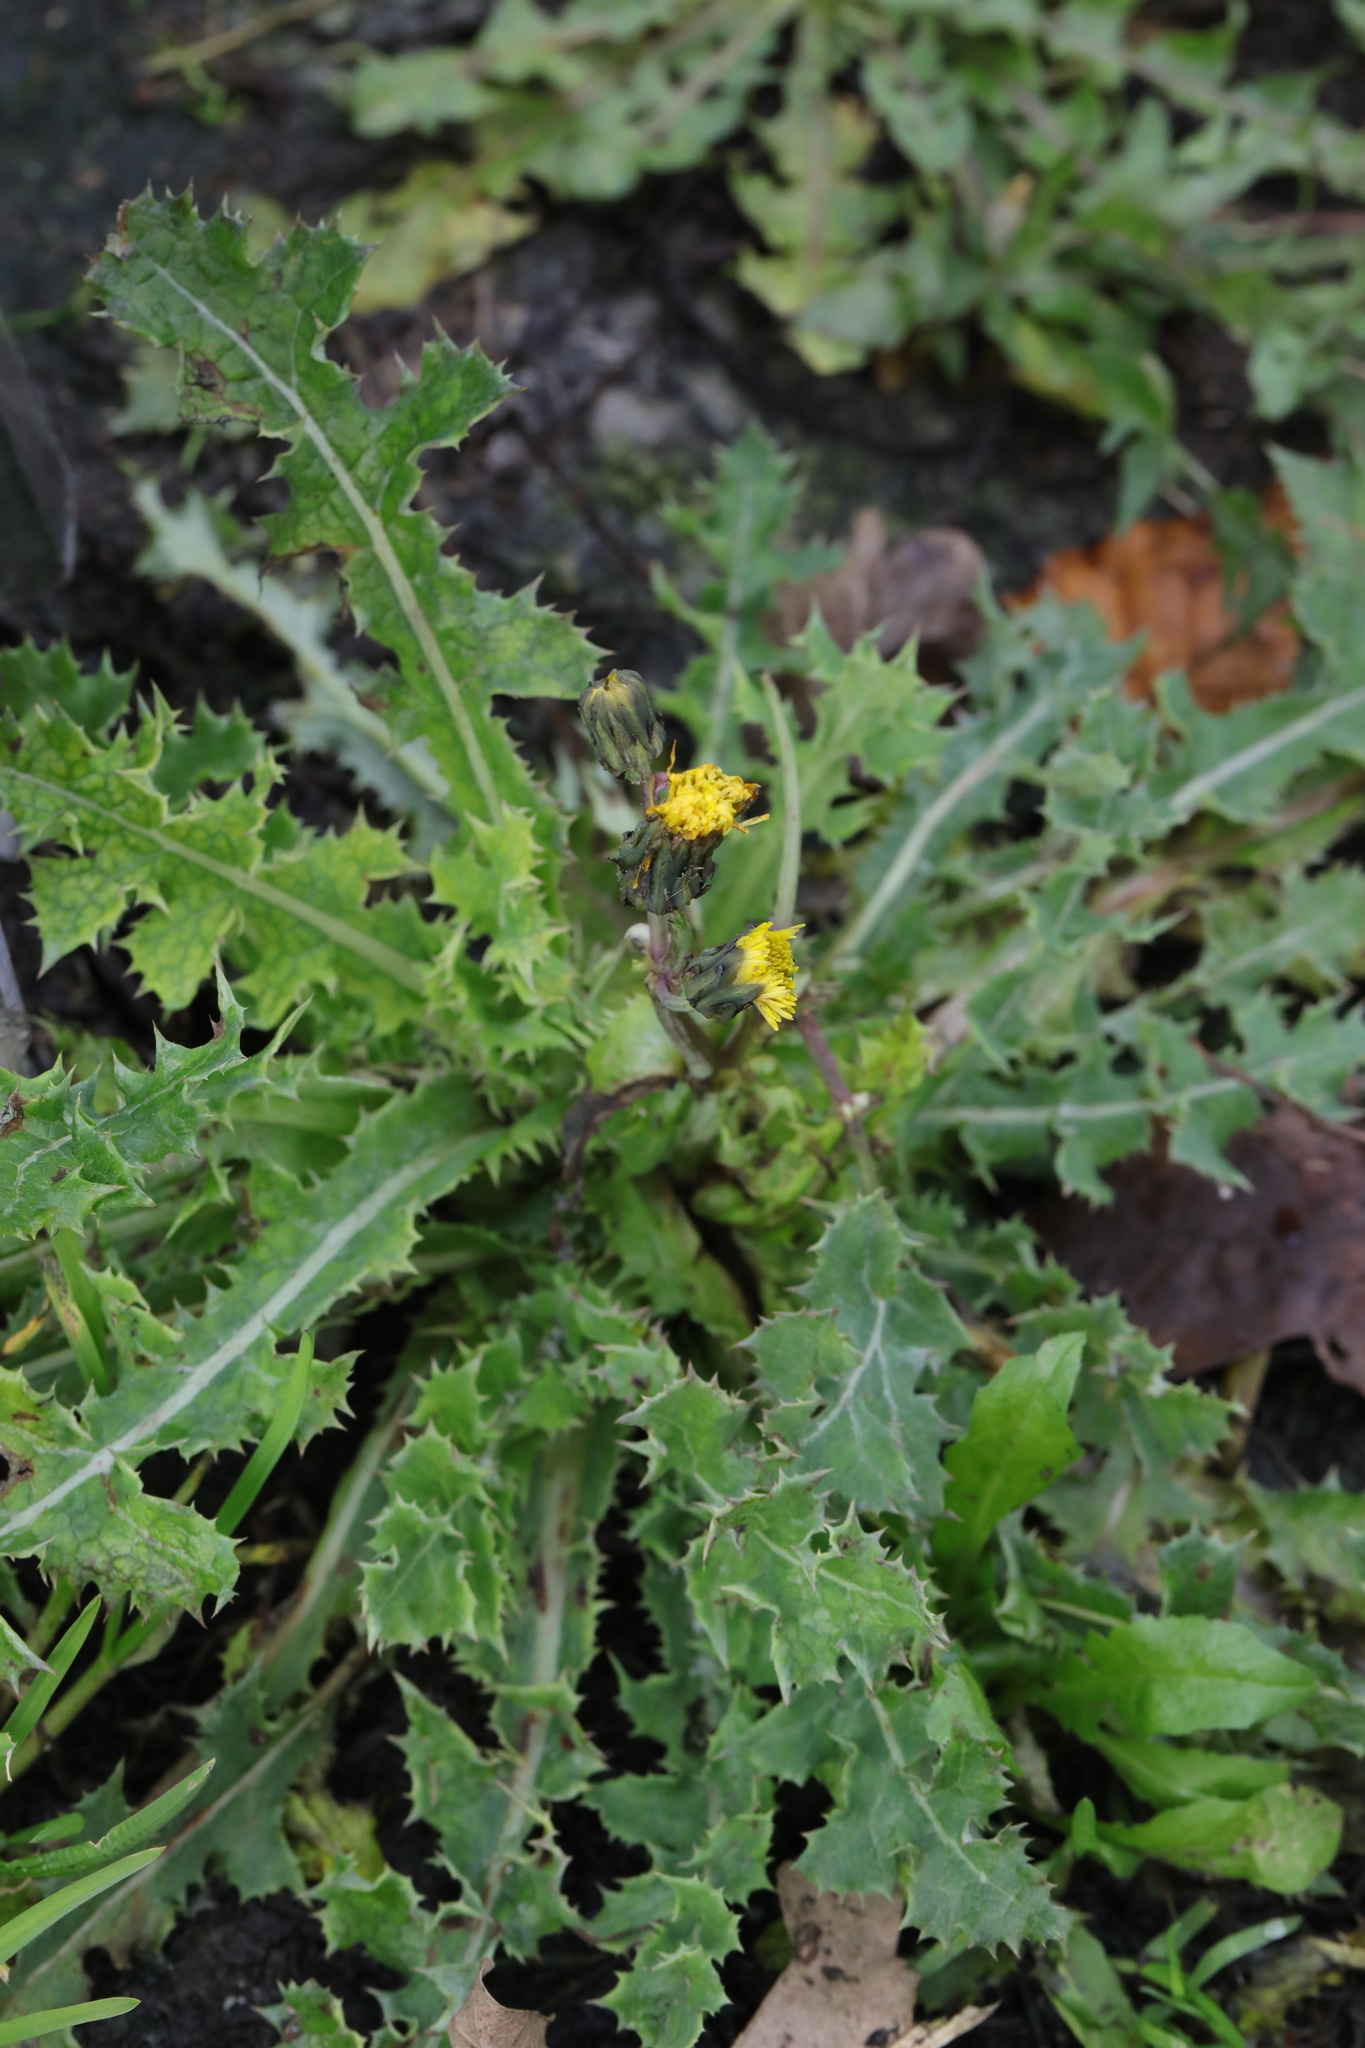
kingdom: Plantae
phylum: Tracheophyta
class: Magnoliopsida
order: Asterales
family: Asteraceae
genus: Sonchus
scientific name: Sonchus asper
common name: Prickly sow-thistle
